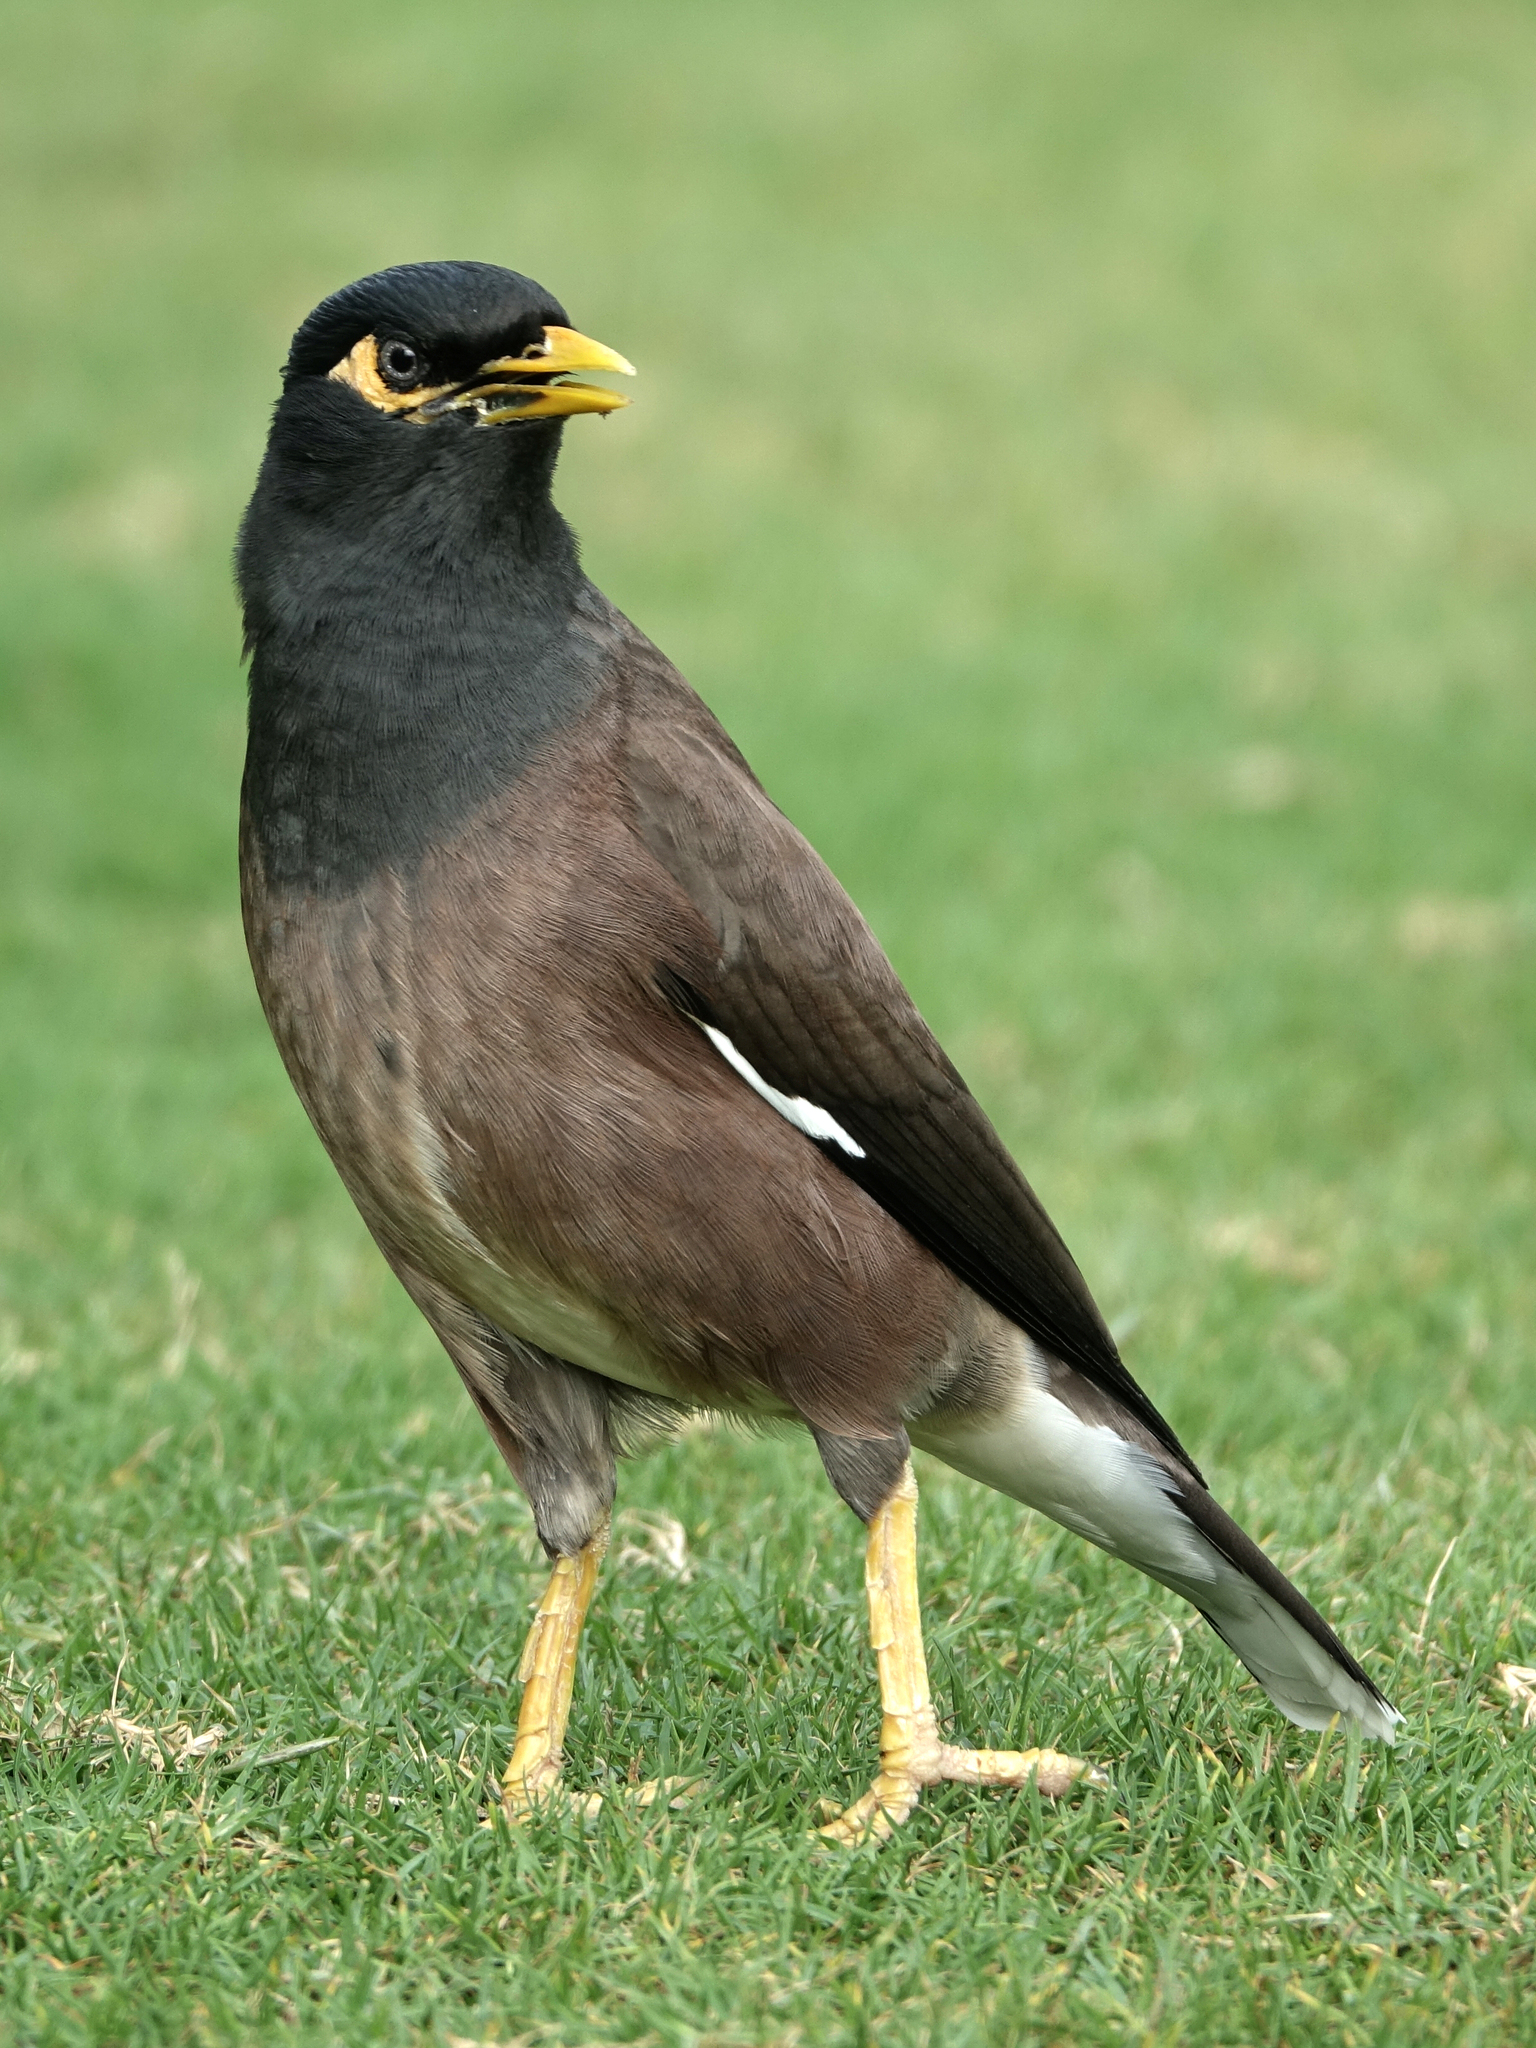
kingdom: Animalia
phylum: Chordata
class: Aves
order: Passeriformes
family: Sturnidae
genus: Acridotheres
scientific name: Acridotheres tristis
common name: Common myna
